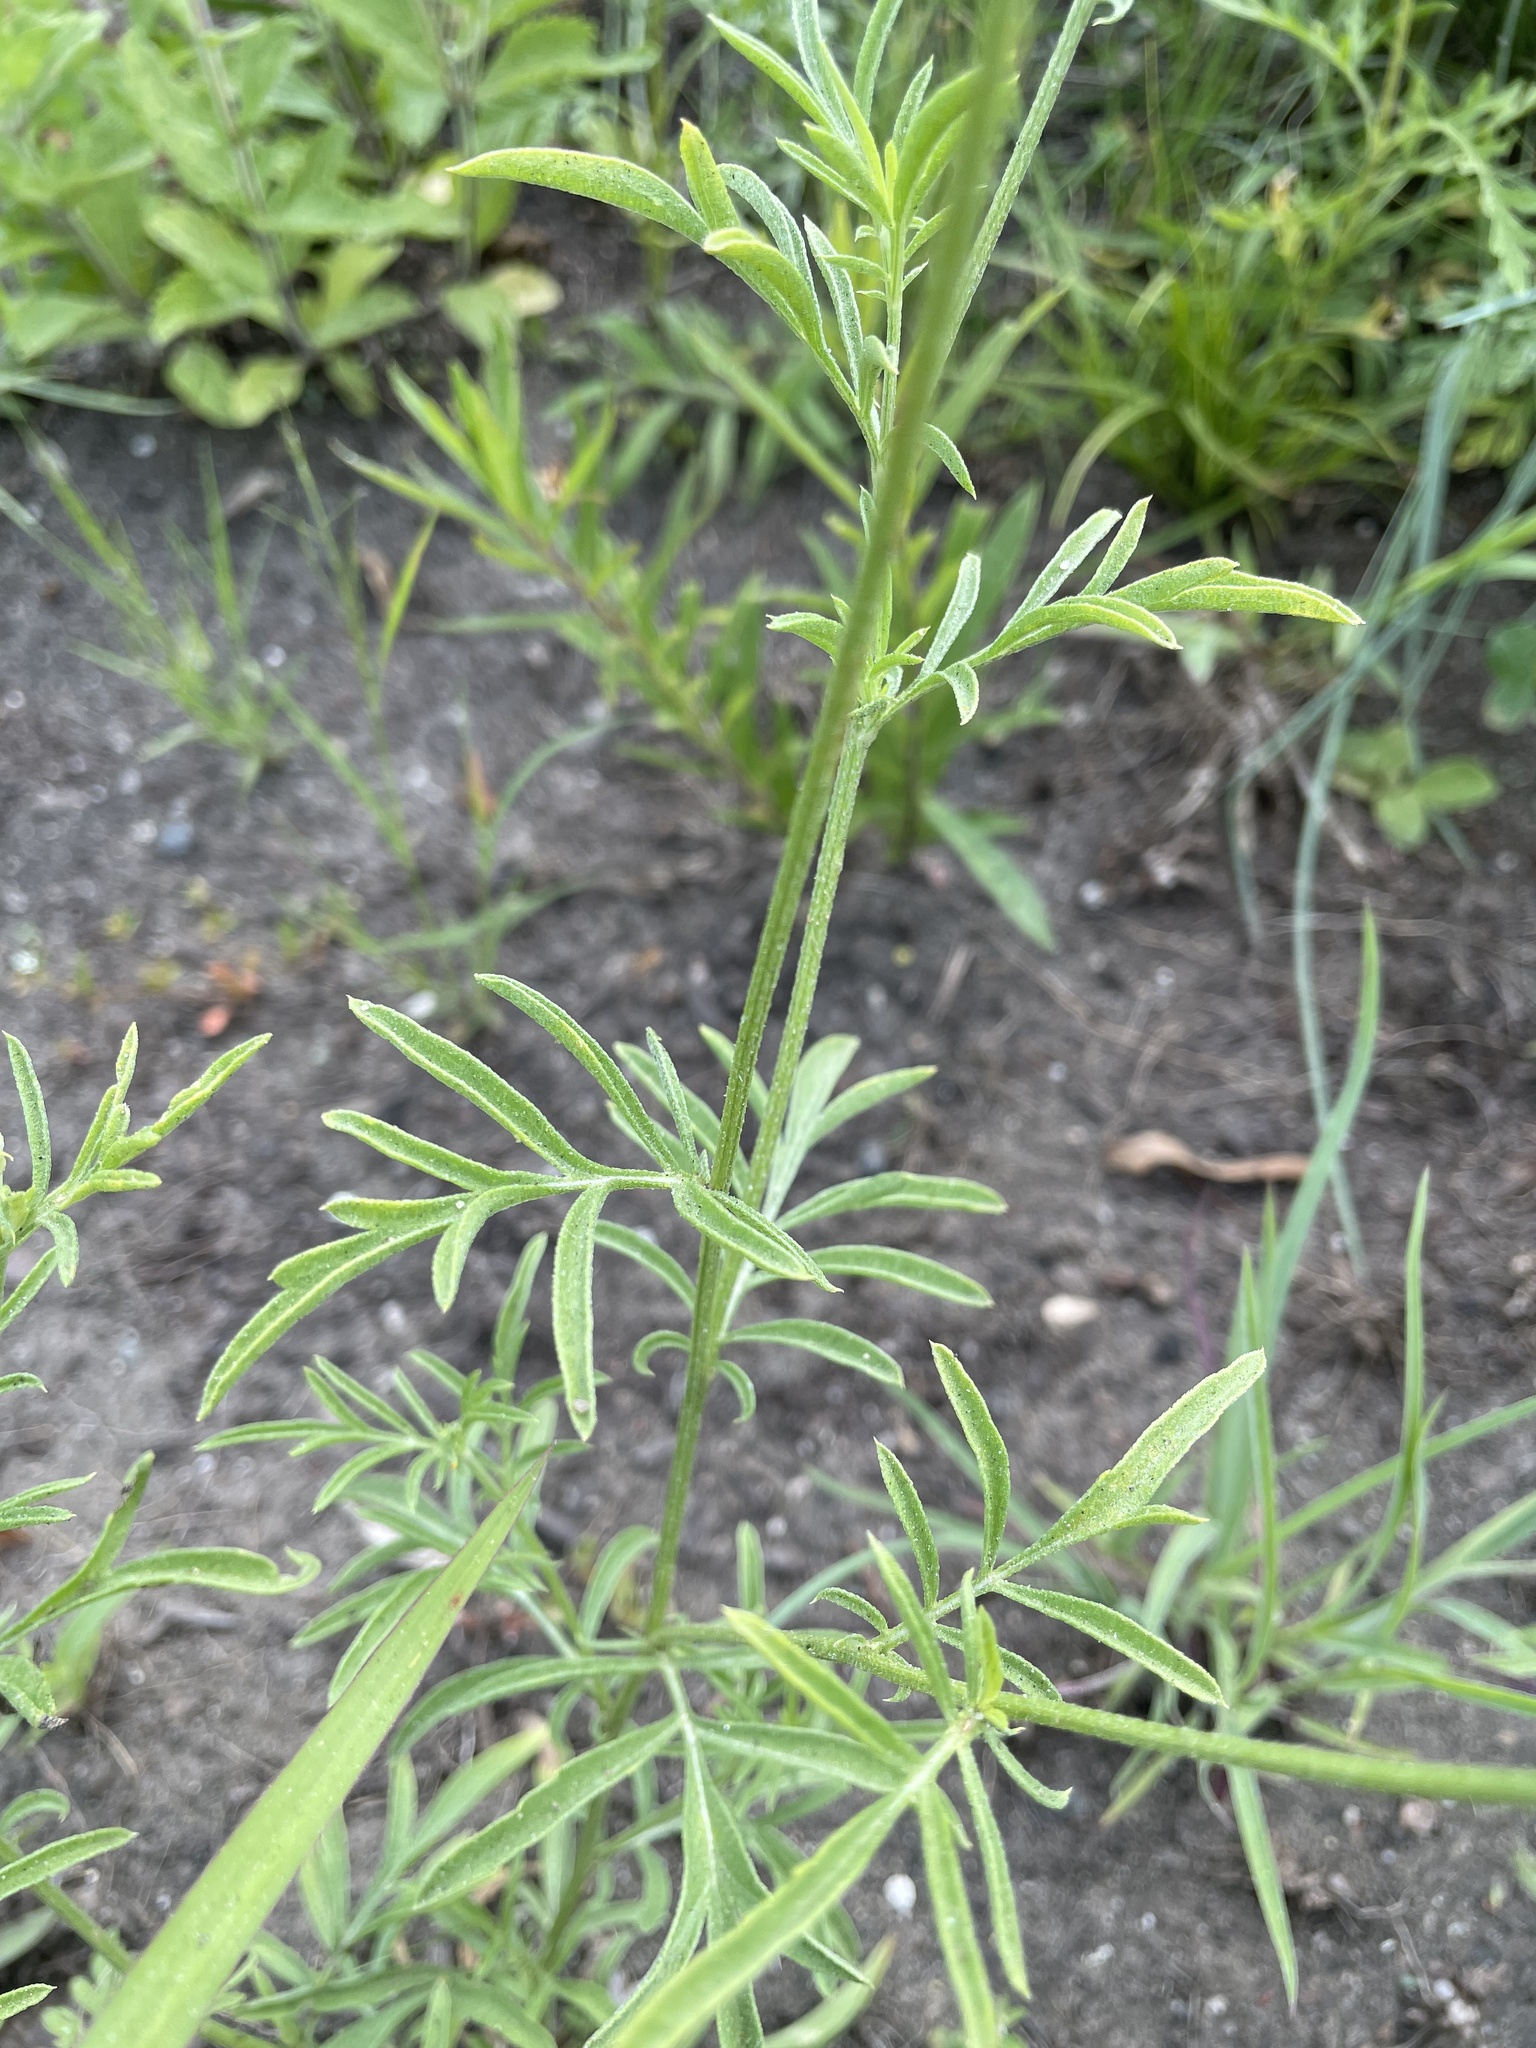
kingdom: Plantae
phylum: Tracheophyta
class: Magnoliopsida
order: Asterales
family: Asteraceae
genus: Ratibida
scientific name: Ratibida columnifera
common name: Prairie coneflower
